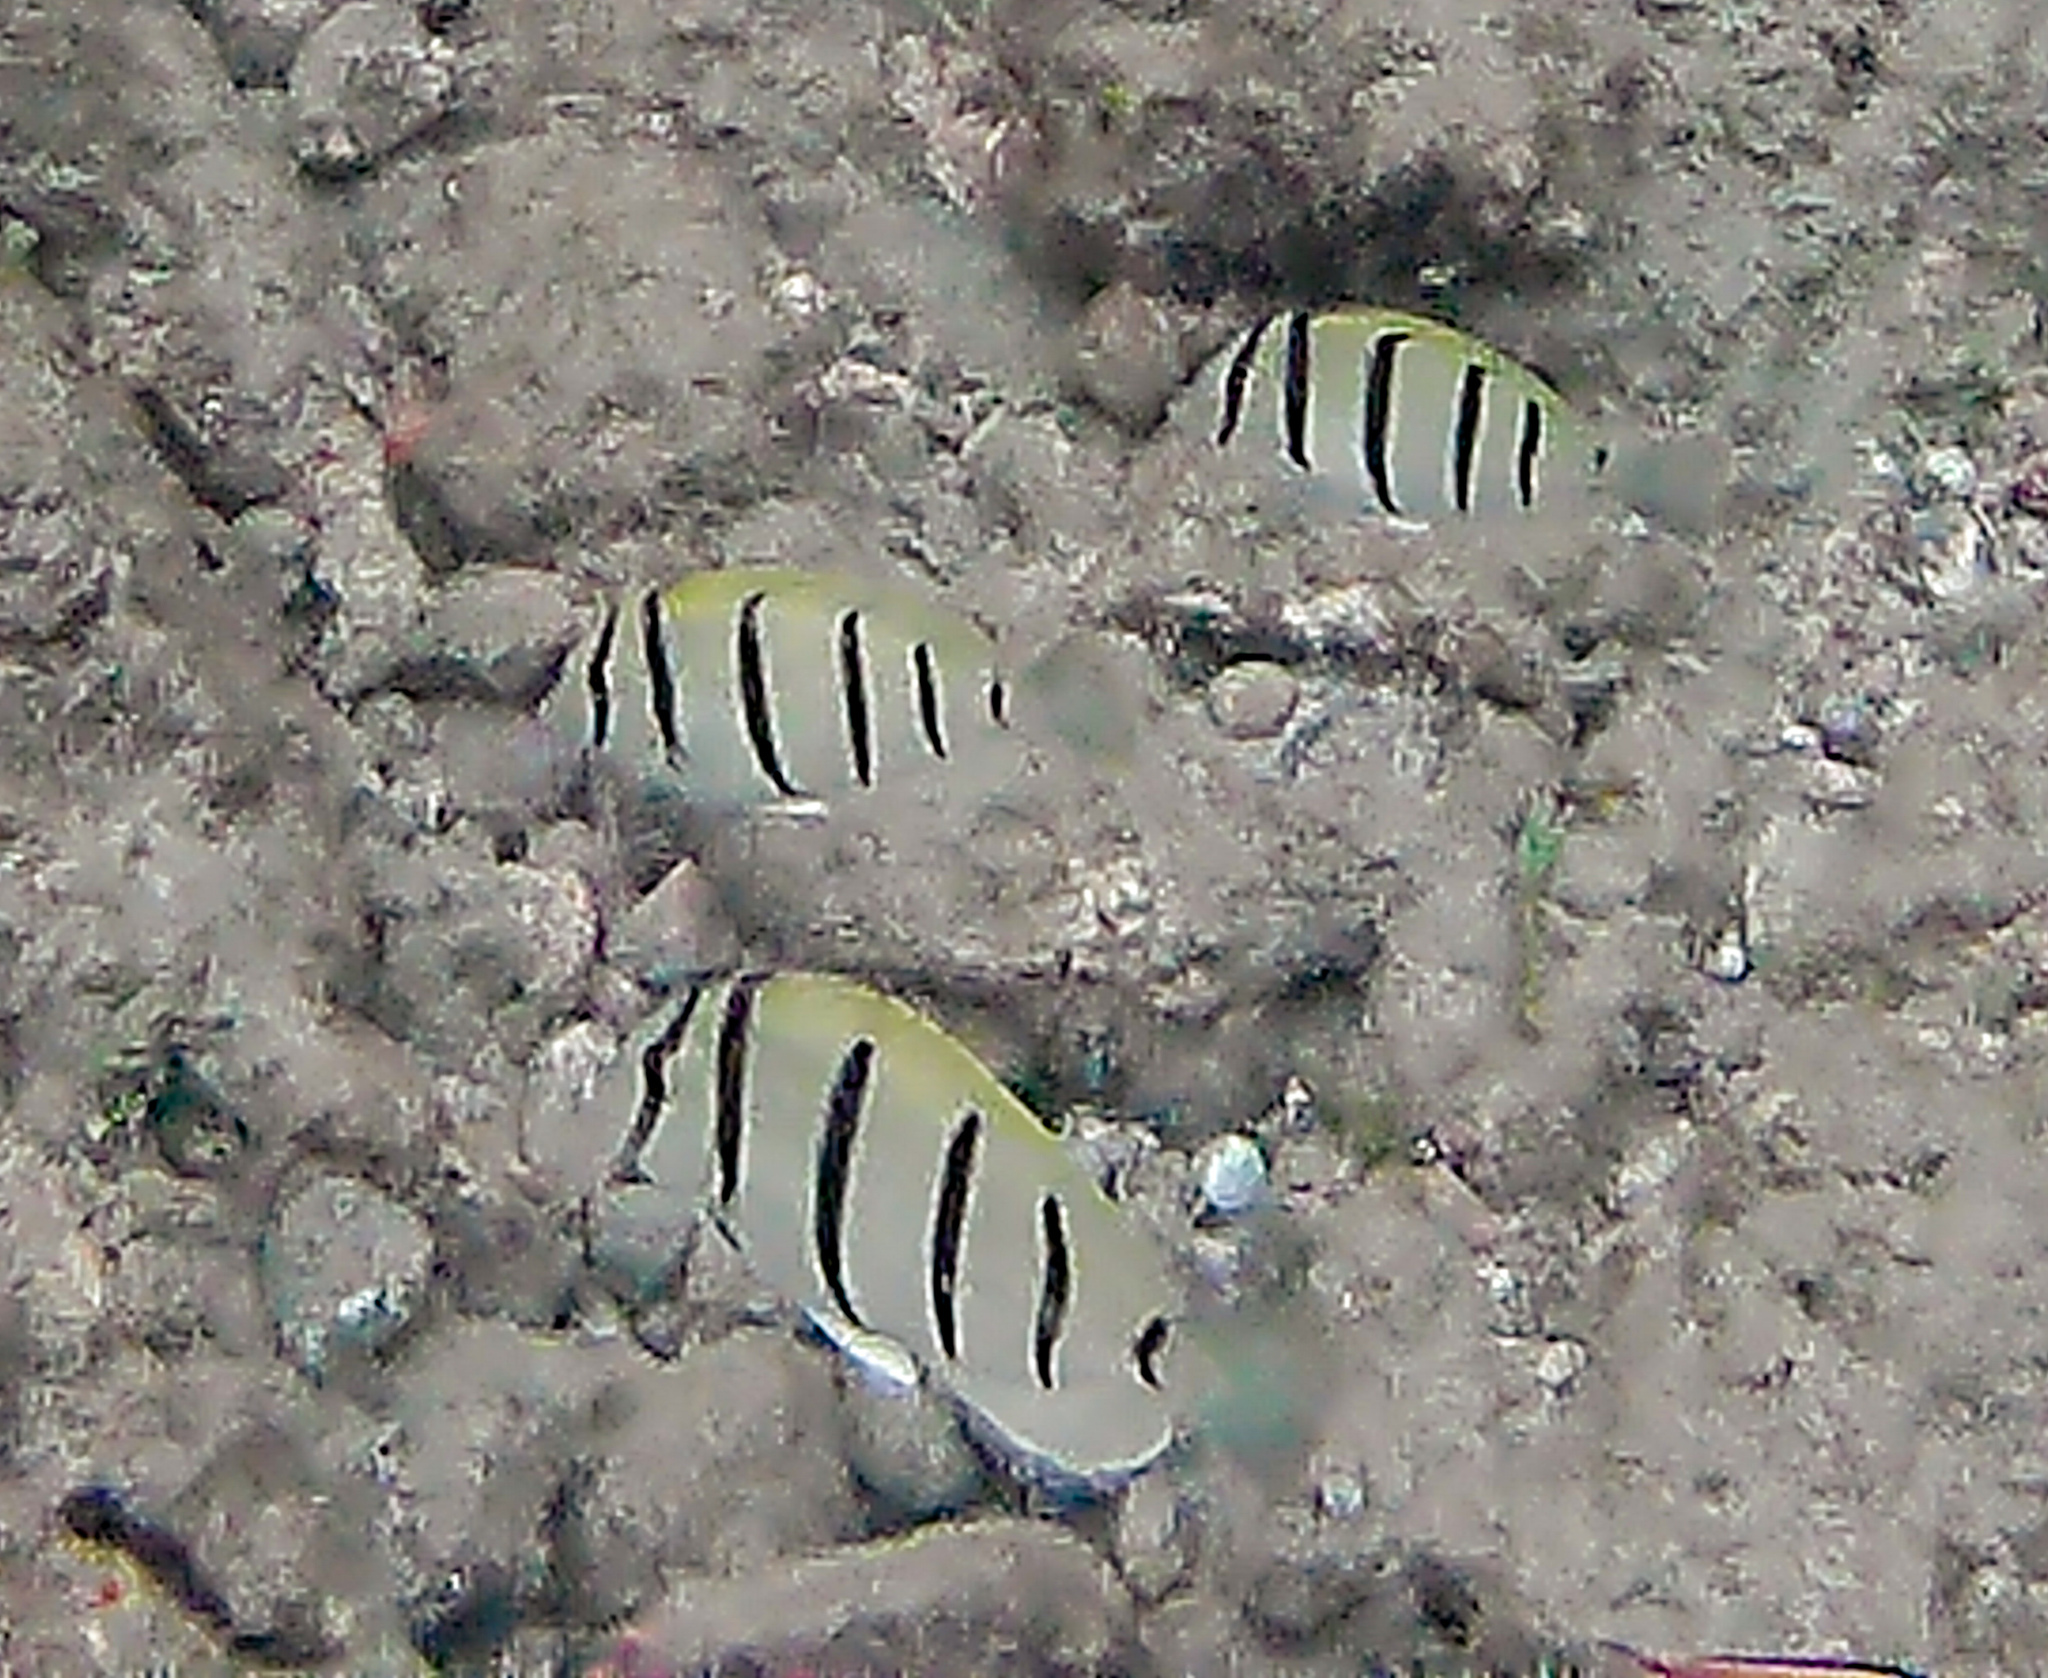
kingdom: Animalia
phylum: Chordata
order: Perciformes
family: Acanthuridae
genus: Acanthurus
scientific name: Acanthurus triostegus
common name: Convict surgeonfish
